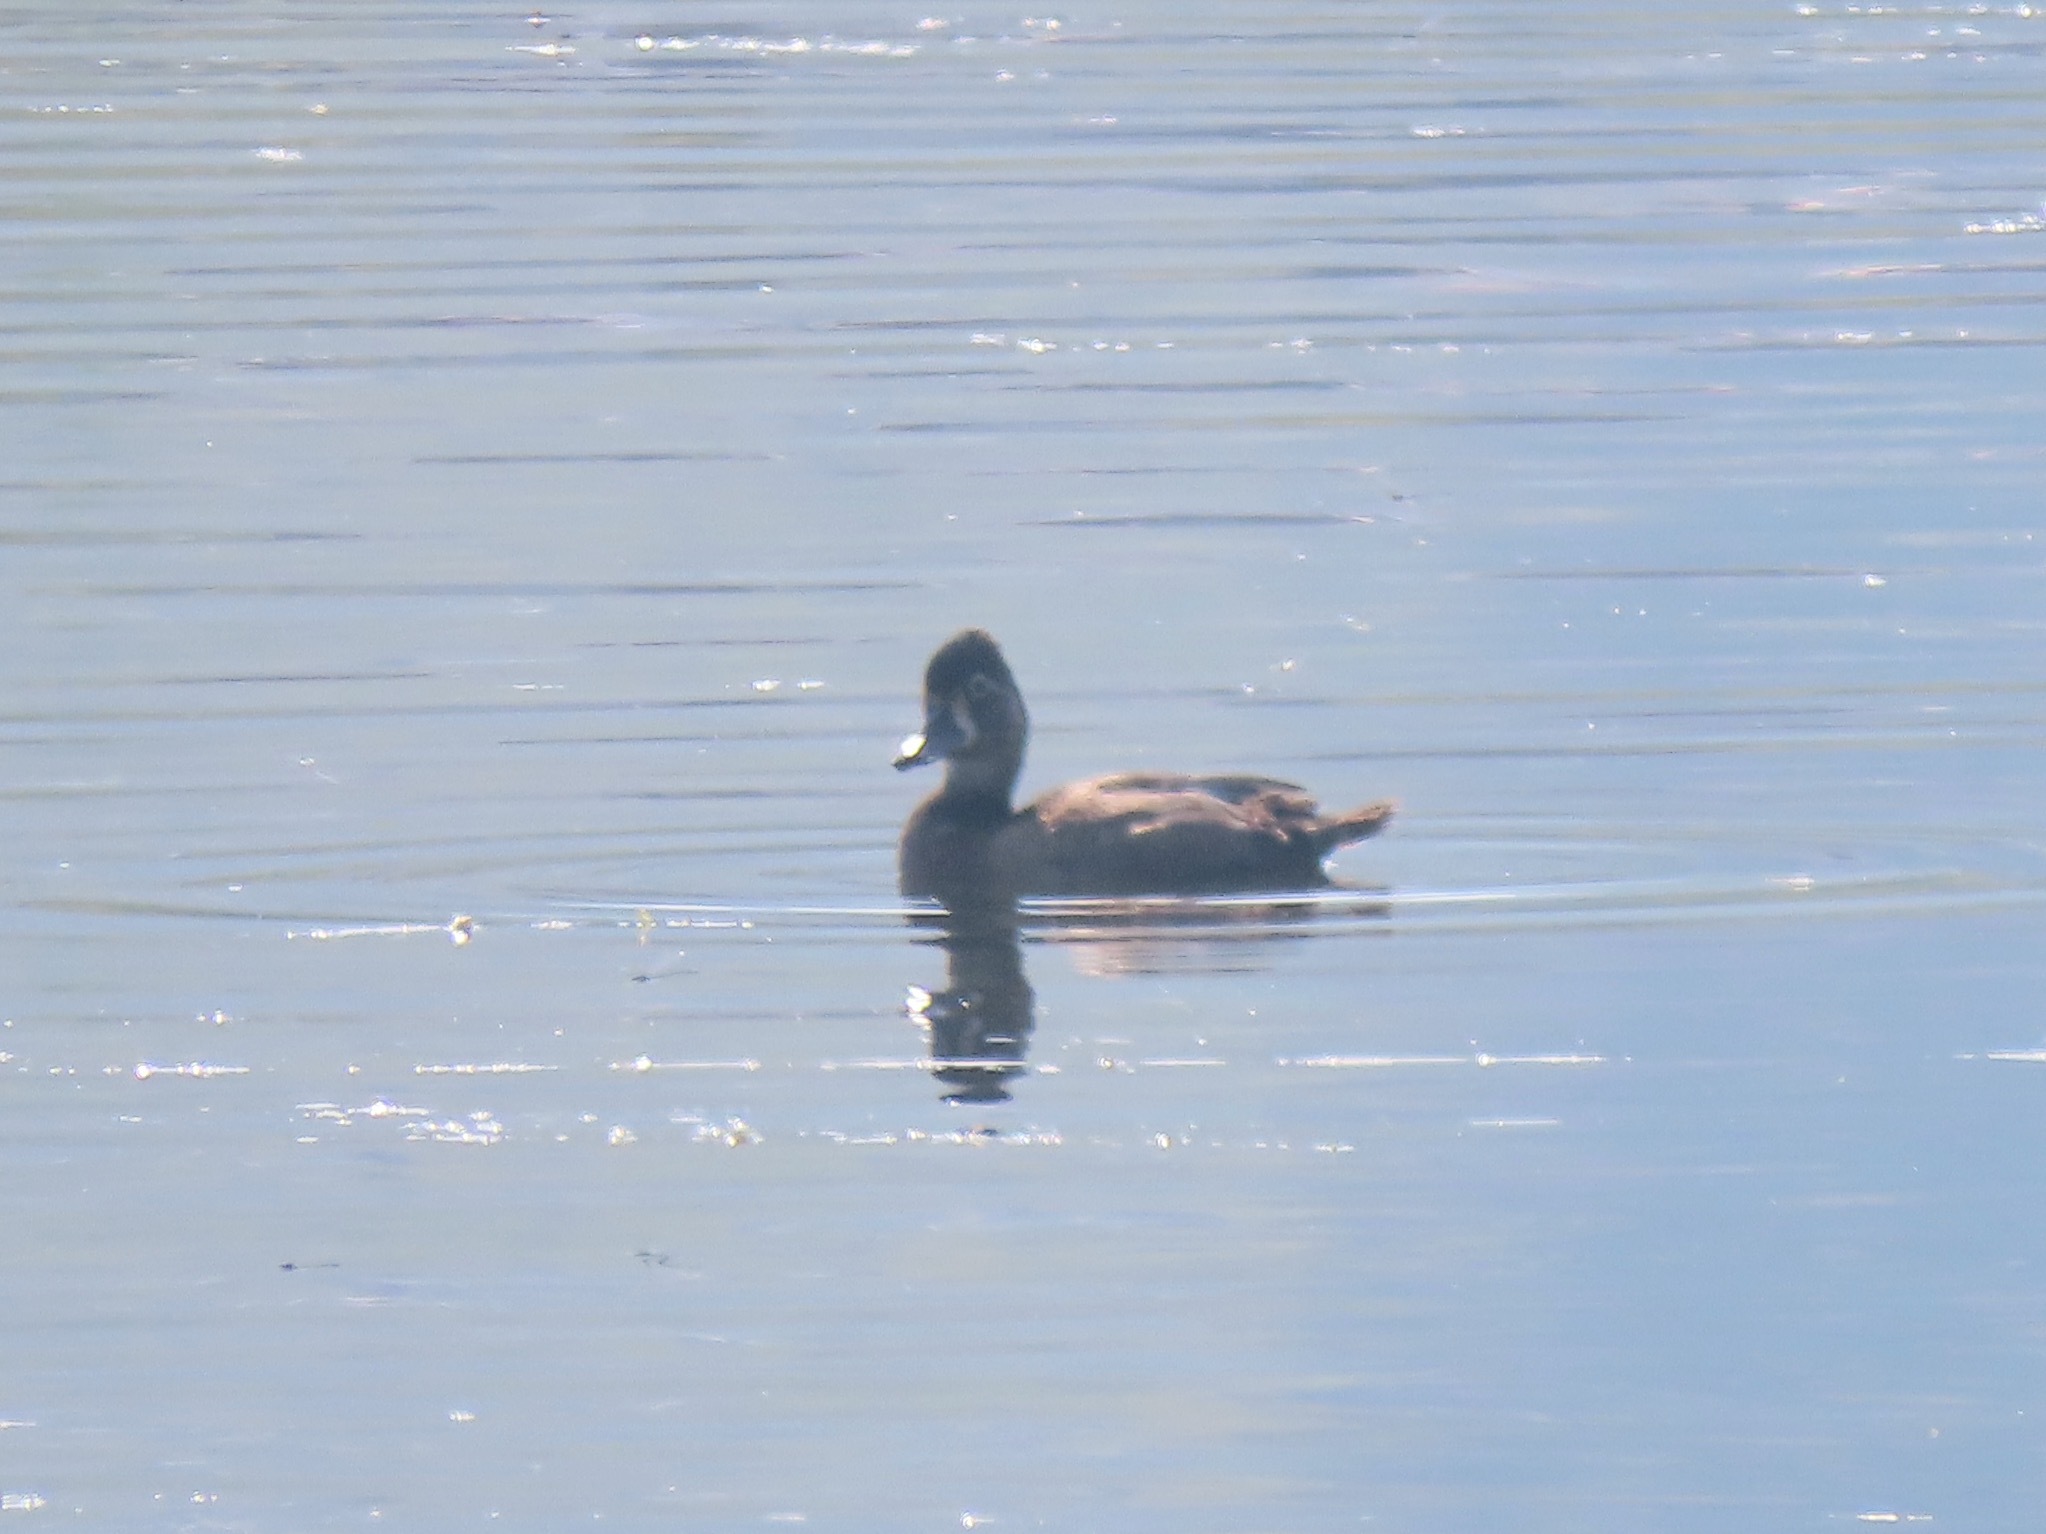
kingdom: Animalia
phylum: Chordata
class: Aves
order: Anseriformes
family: Anatidae
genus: Aythya
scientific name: Aythya collaris
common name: Ring-necked duck
